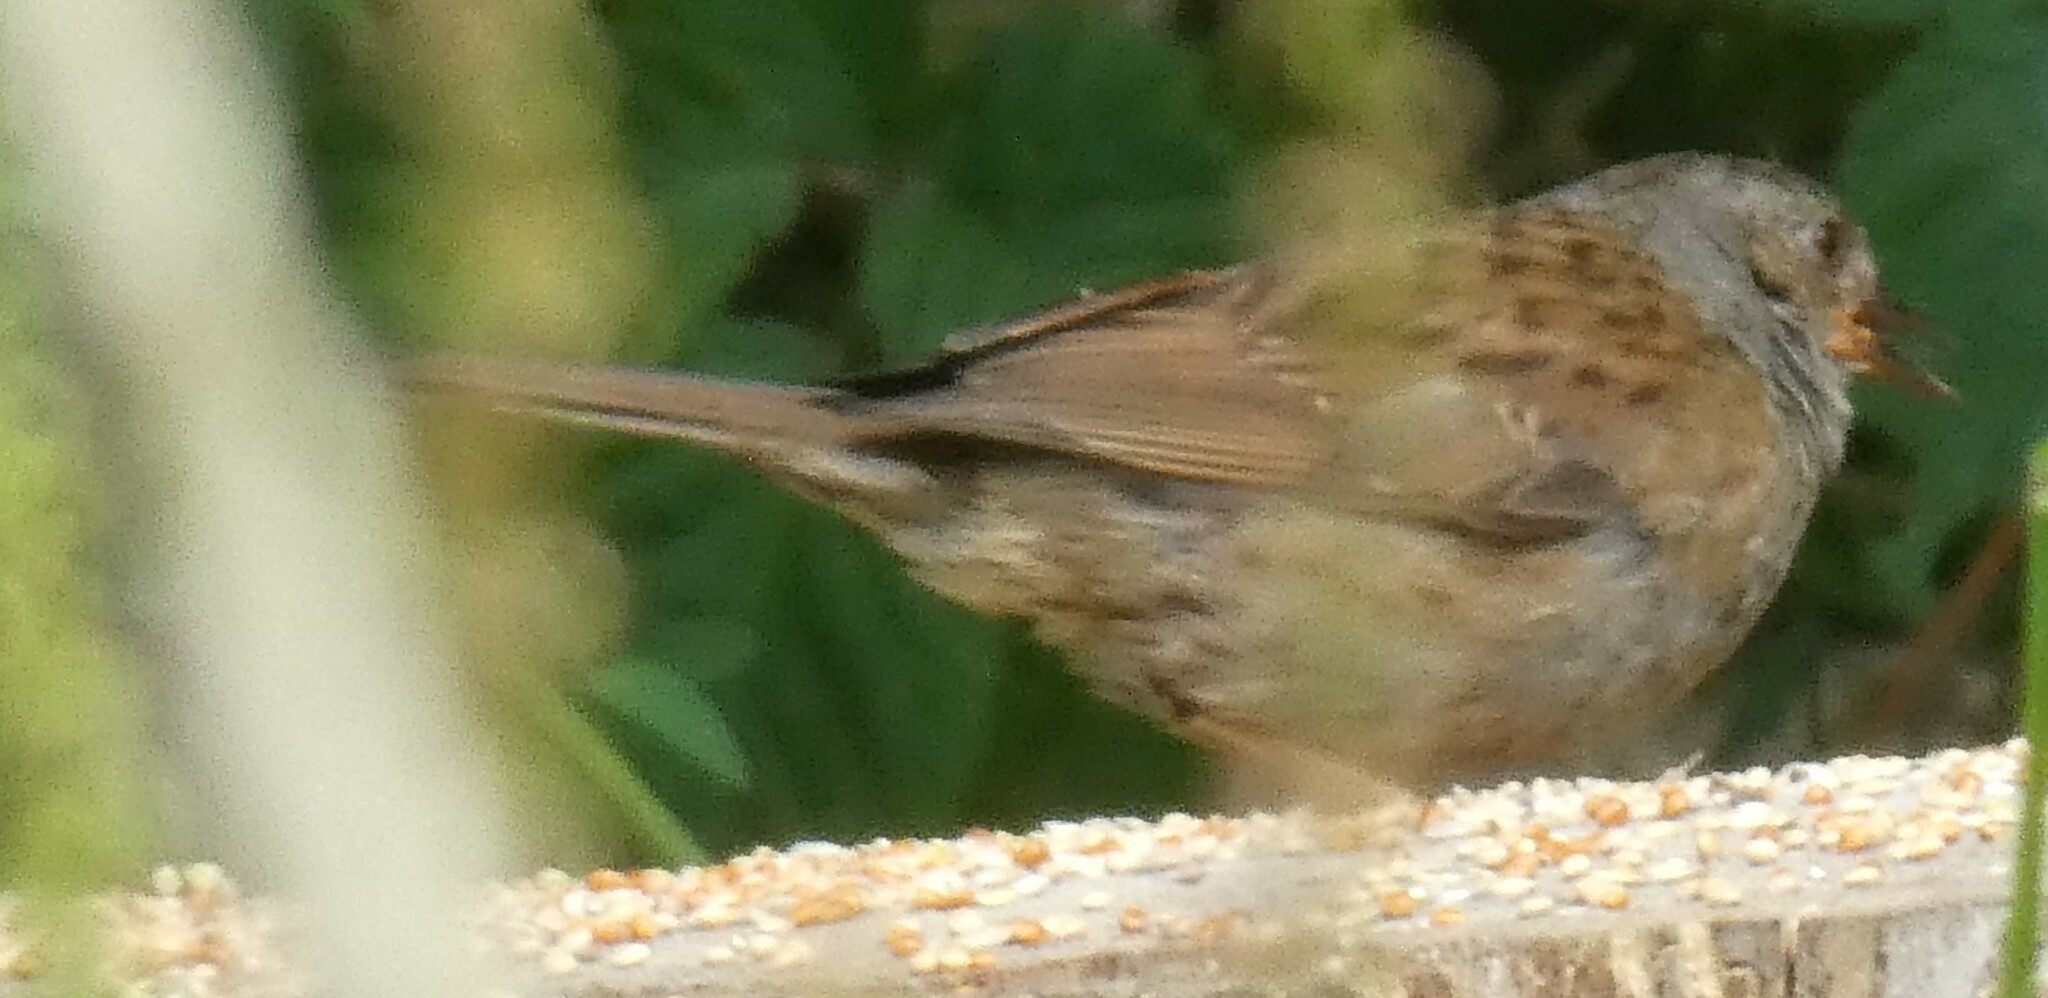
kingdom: Animalia
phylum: Chordata
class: Aves
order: Passeriformes
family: Prunellidae
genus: Prunella
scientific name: Prunella modularis
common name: Dunnock
